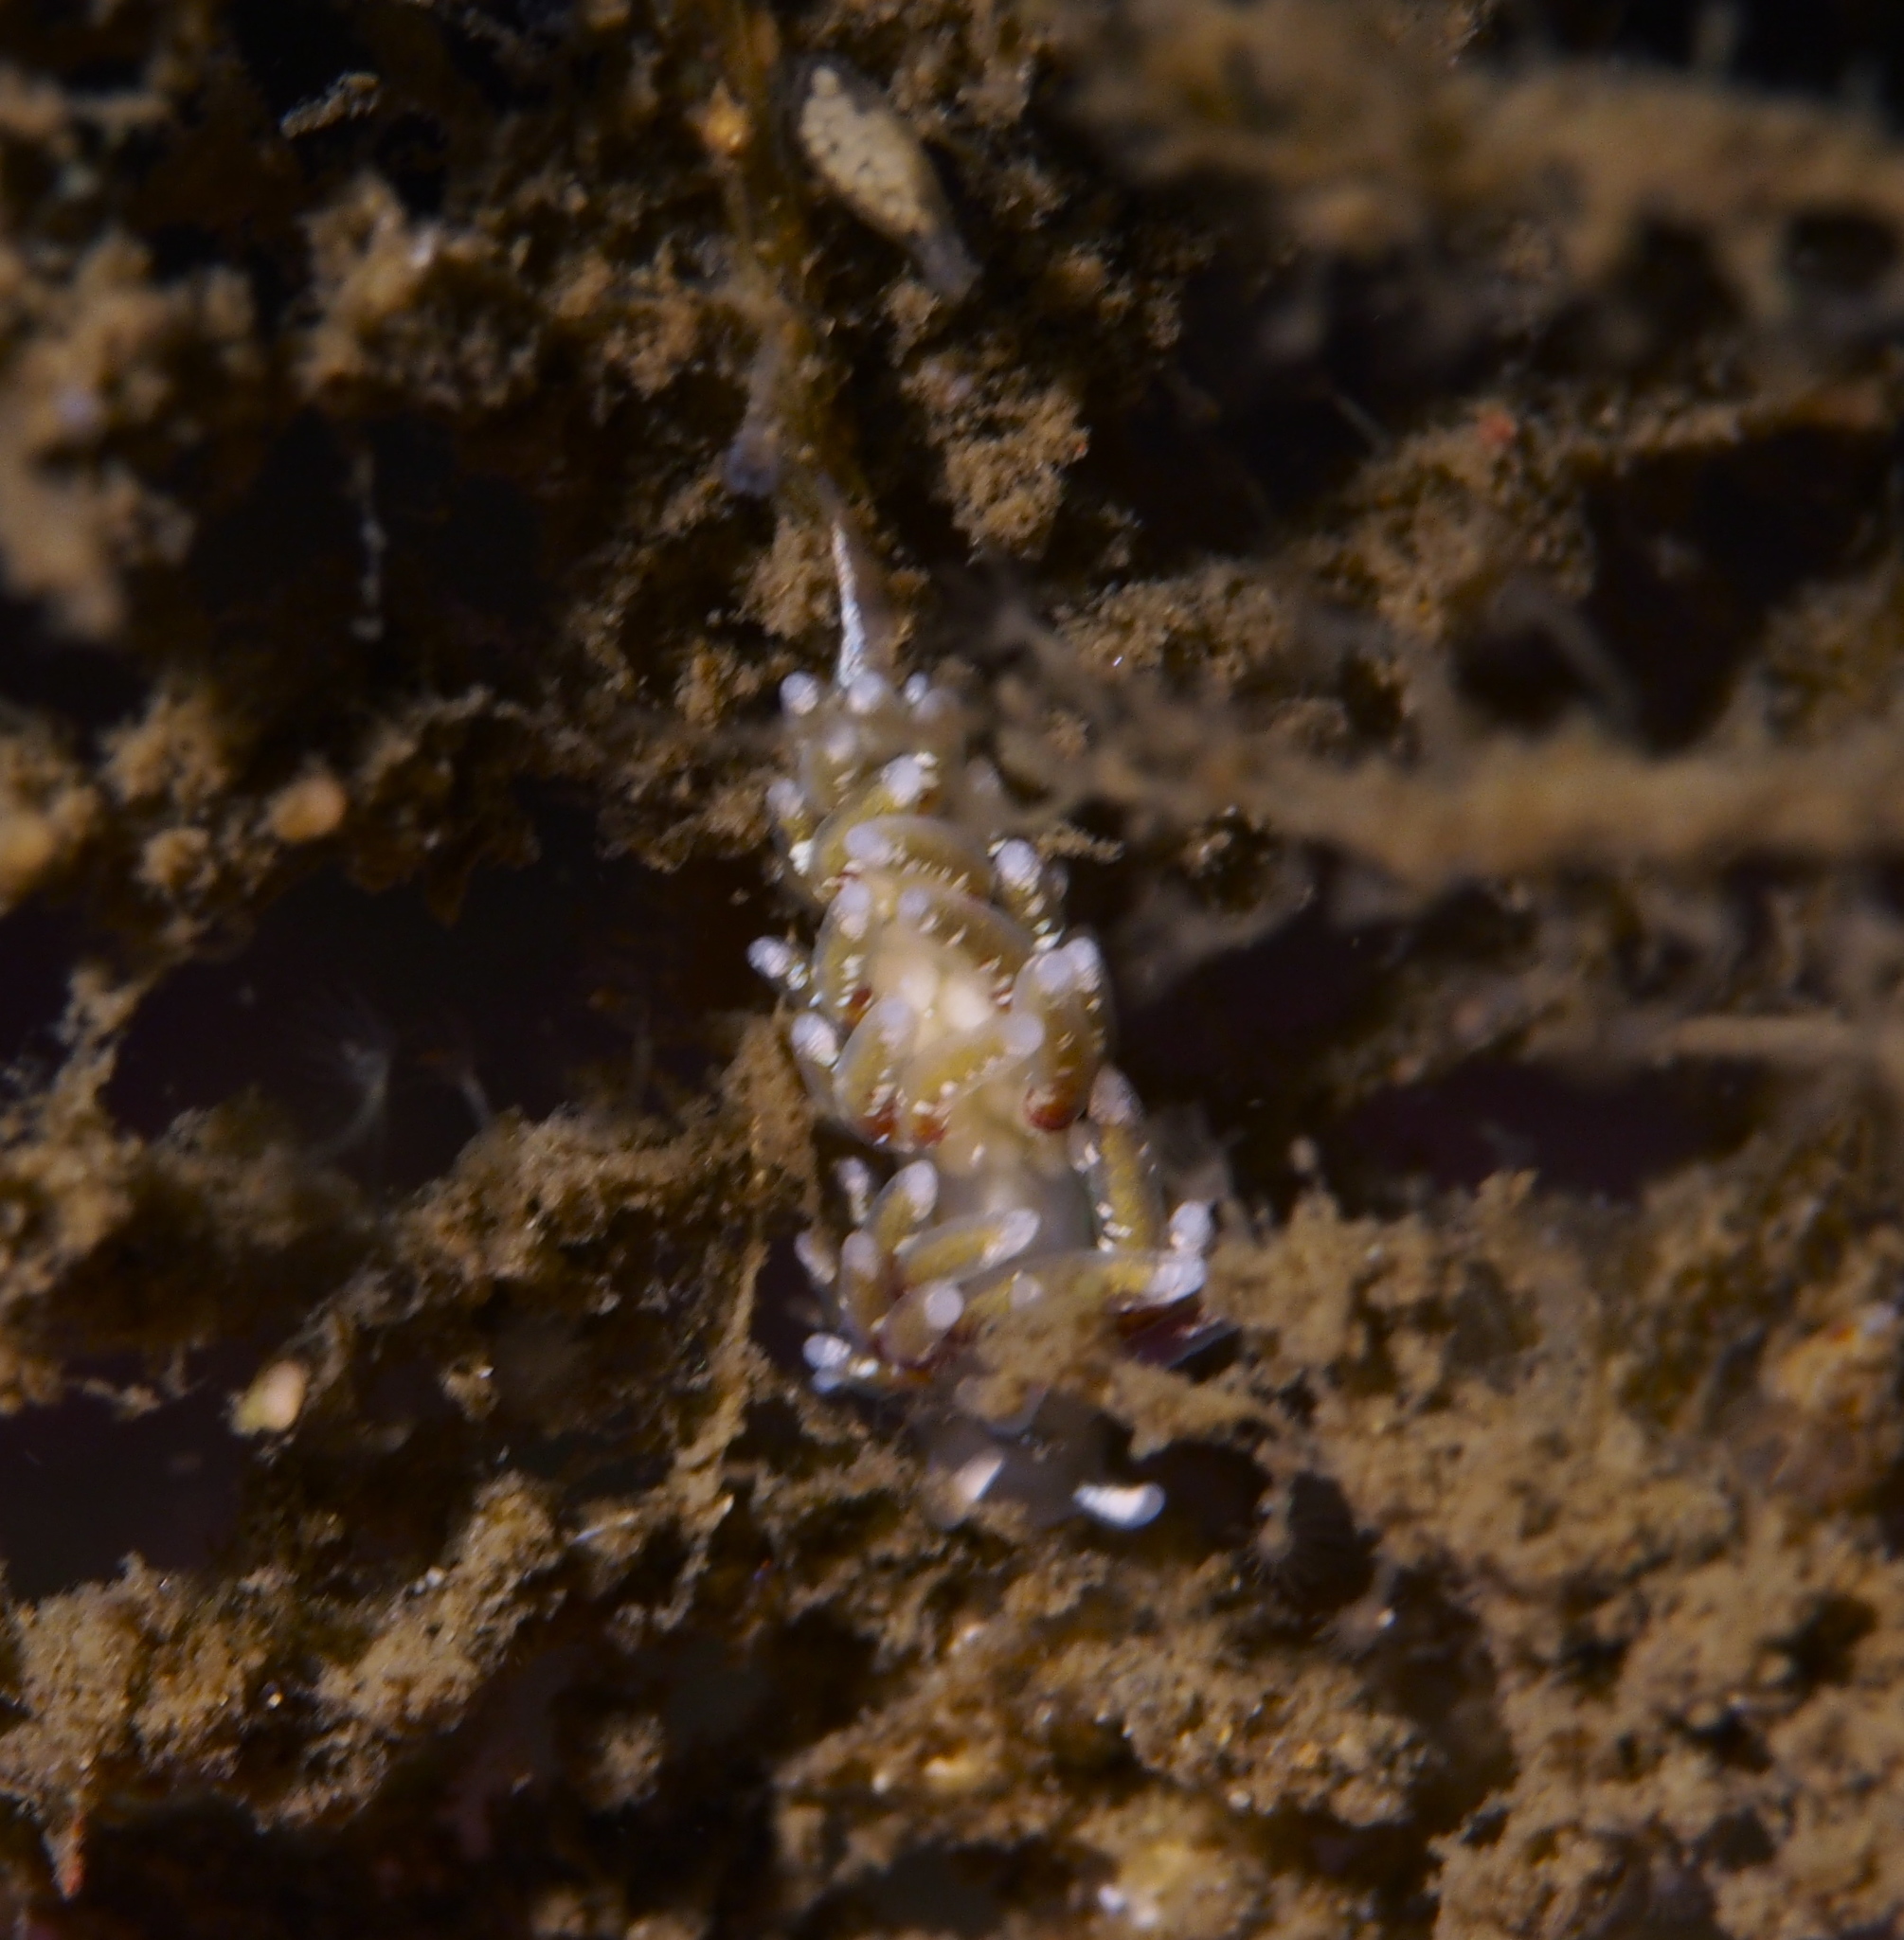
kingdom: Animalia
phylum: Mollusca
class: Gastropoda
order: Nudibranchia
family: Trinchesiidae
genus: Rubramoena
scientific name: Rubramoena rubescens
